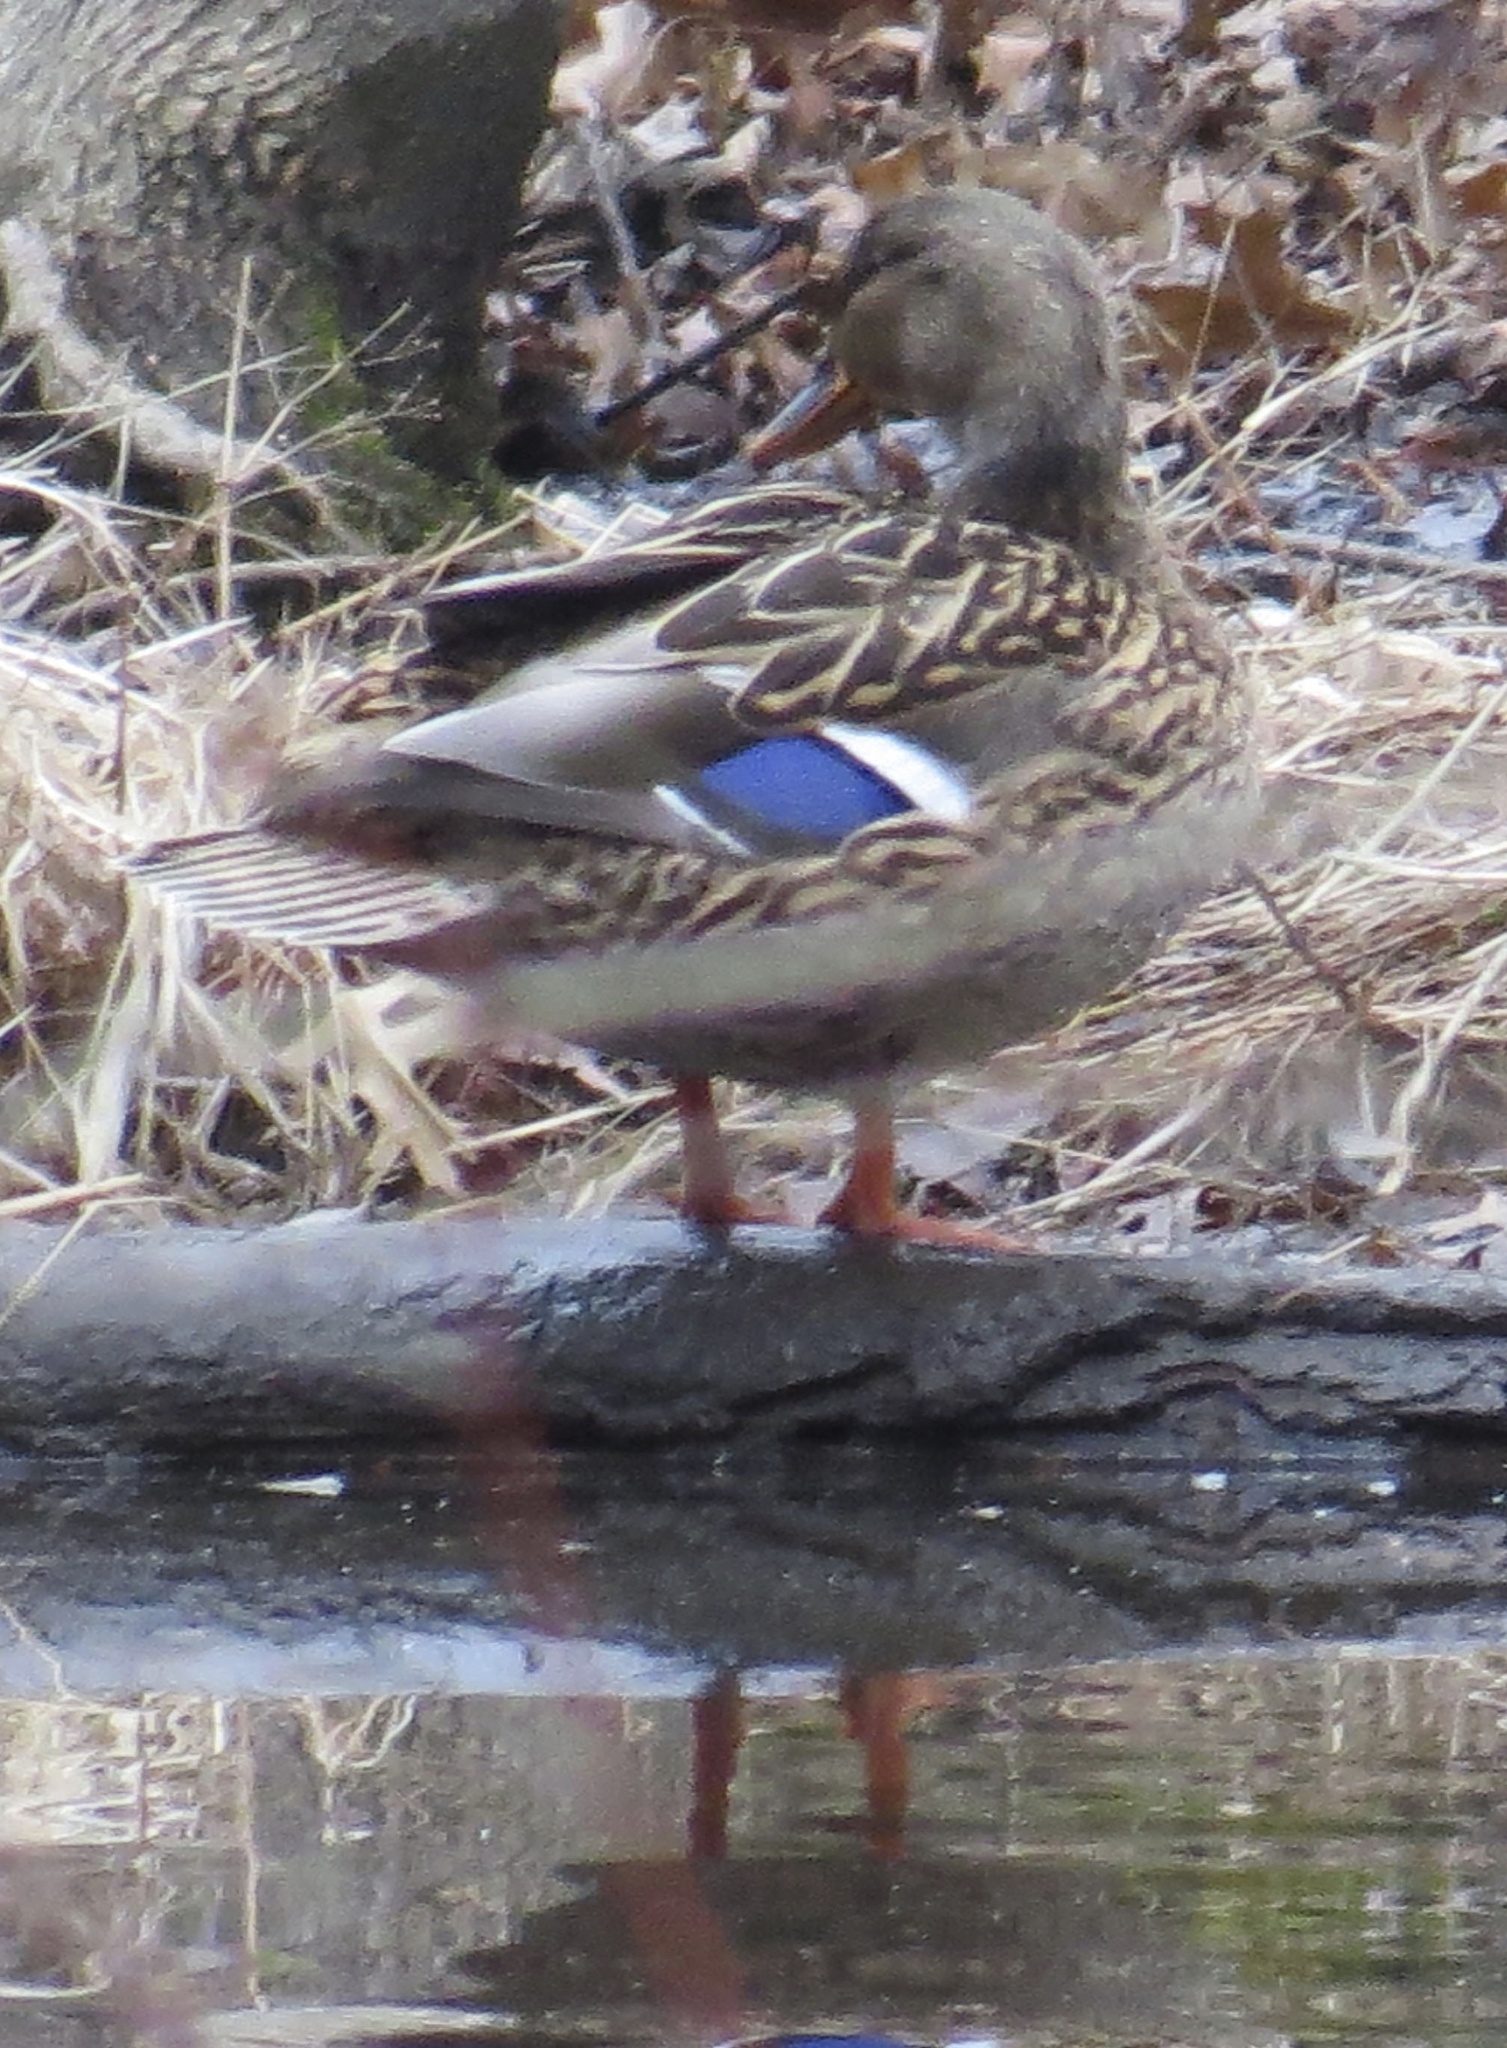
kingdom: Animalia
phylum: Chordata
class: Aves
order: Anseriformes
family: Anatidae
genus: Anas
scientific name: Anas platyrhynchos
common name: Mallard
